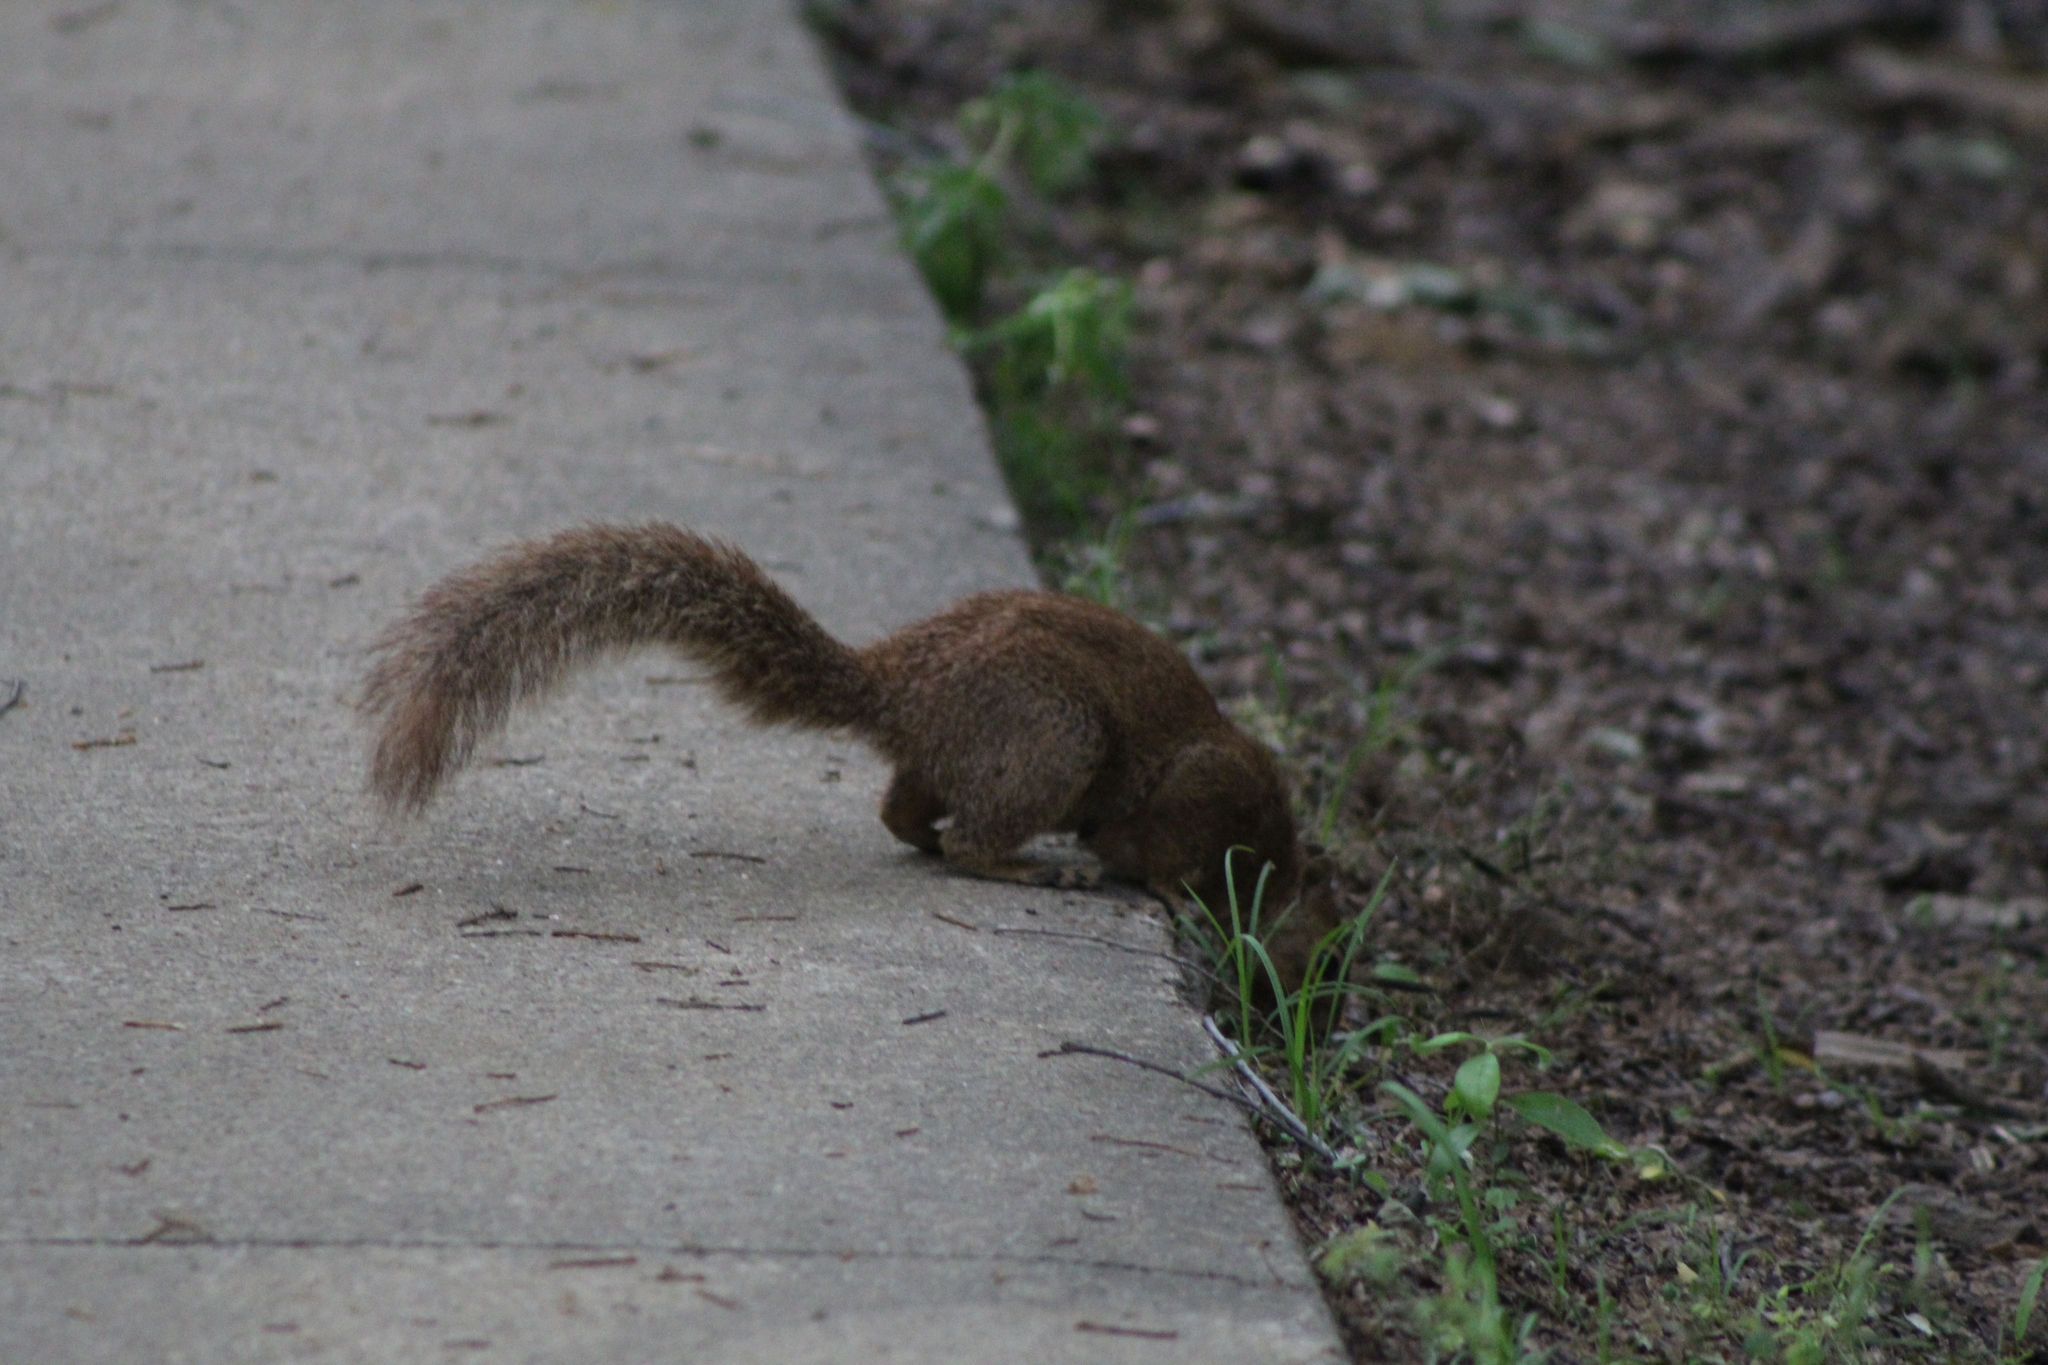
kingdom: Animalia
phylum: Chordata
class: Mammalia
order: Rodentia
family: Sciuridae
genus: Sciurus
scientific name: Sciurus niger
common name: Fox squirrel
